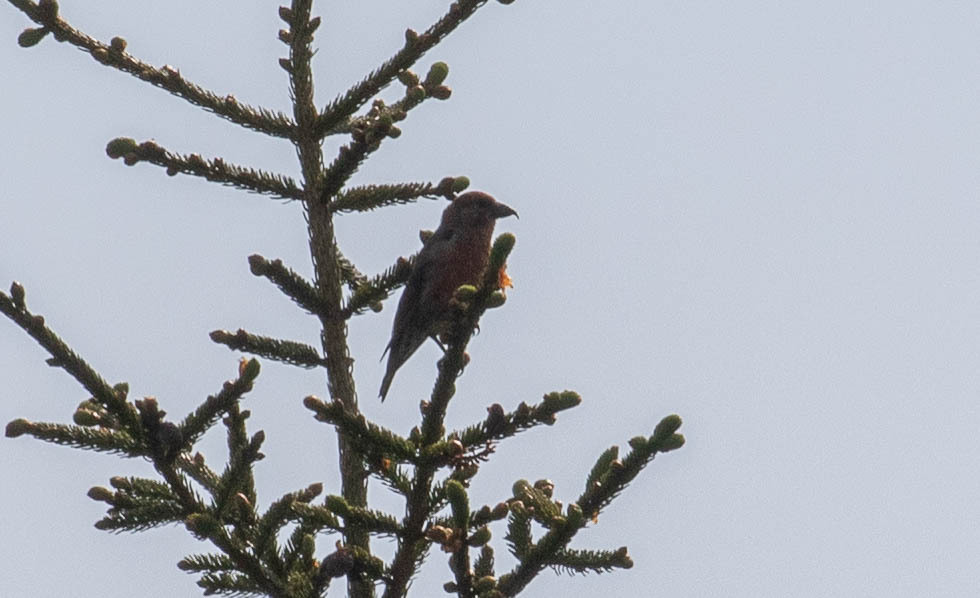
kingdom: Animalia
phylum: Chordata
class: Aves
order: Passeriformes
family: Fringillidae
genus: Loxia
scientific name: Loxia curvirostra
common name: Red crossbill
